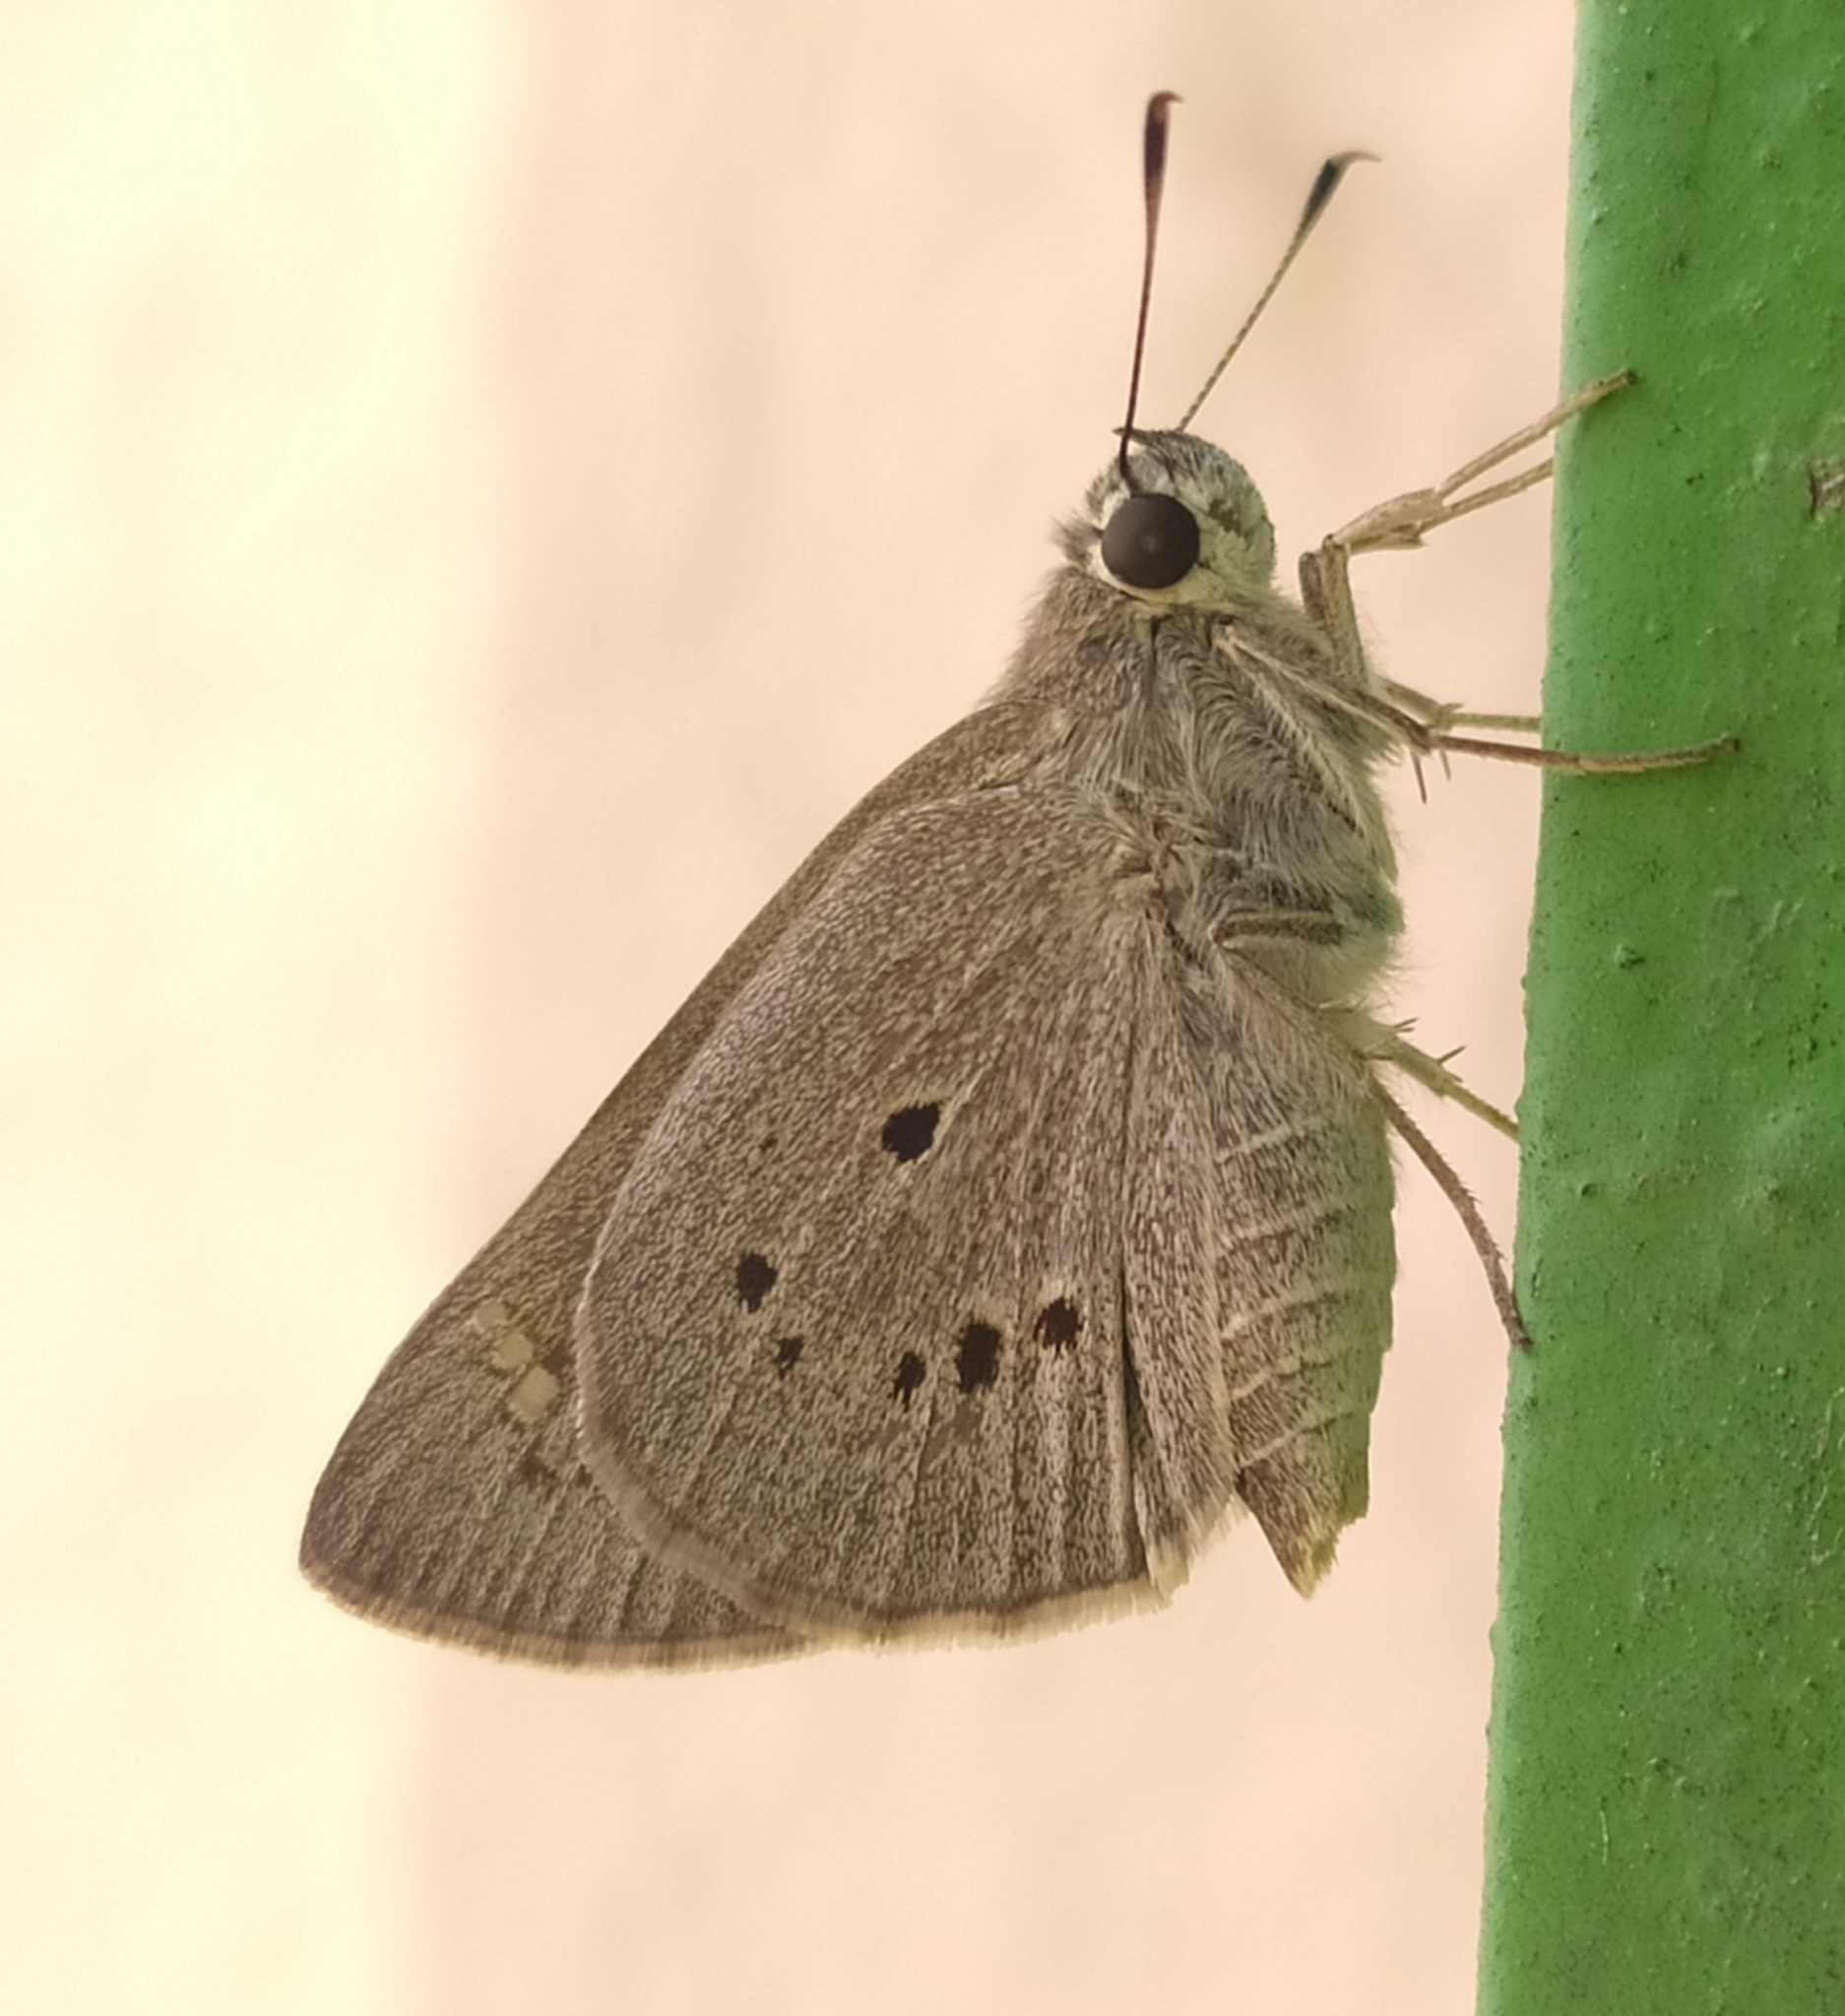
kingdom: Animalia
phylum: Arthropoda
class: Insecta
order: Lepidoptera
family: Hesperiidae
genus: Suastus
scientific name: Suastus gremius
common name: Indian palm bob
